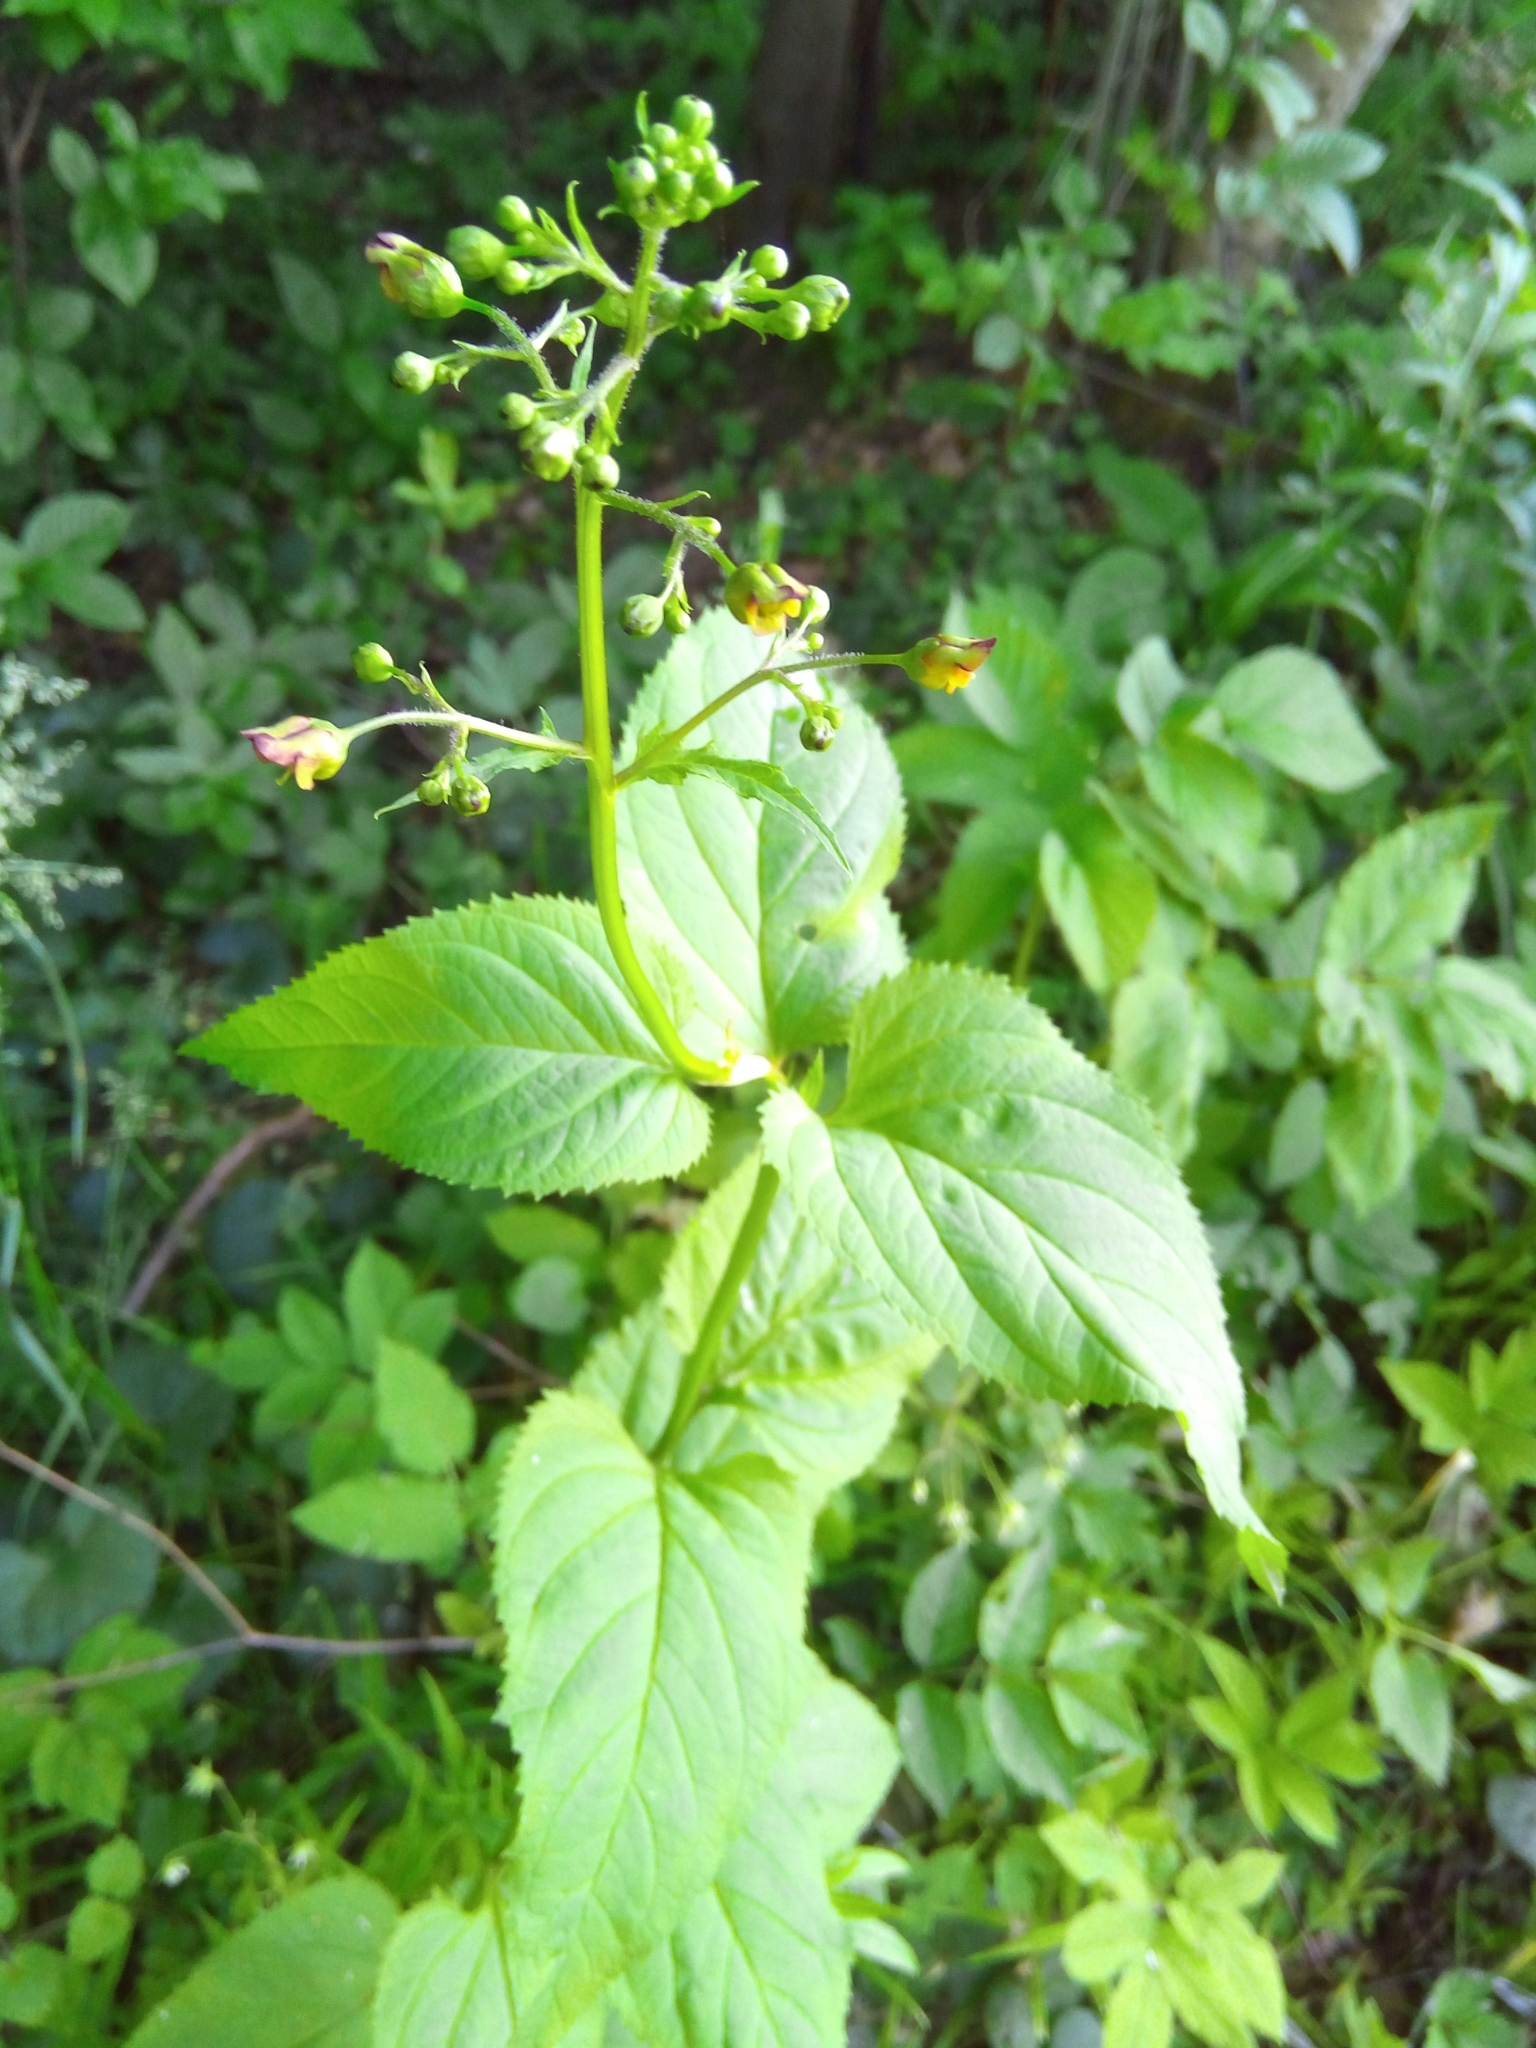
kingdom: Plantae
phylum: Tracheophyta
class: Magnoliopsida
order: Lamiales
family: Scrophulariaceae
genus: Scrophularia
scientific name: Scrophularia nodosa
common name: Common figwort
